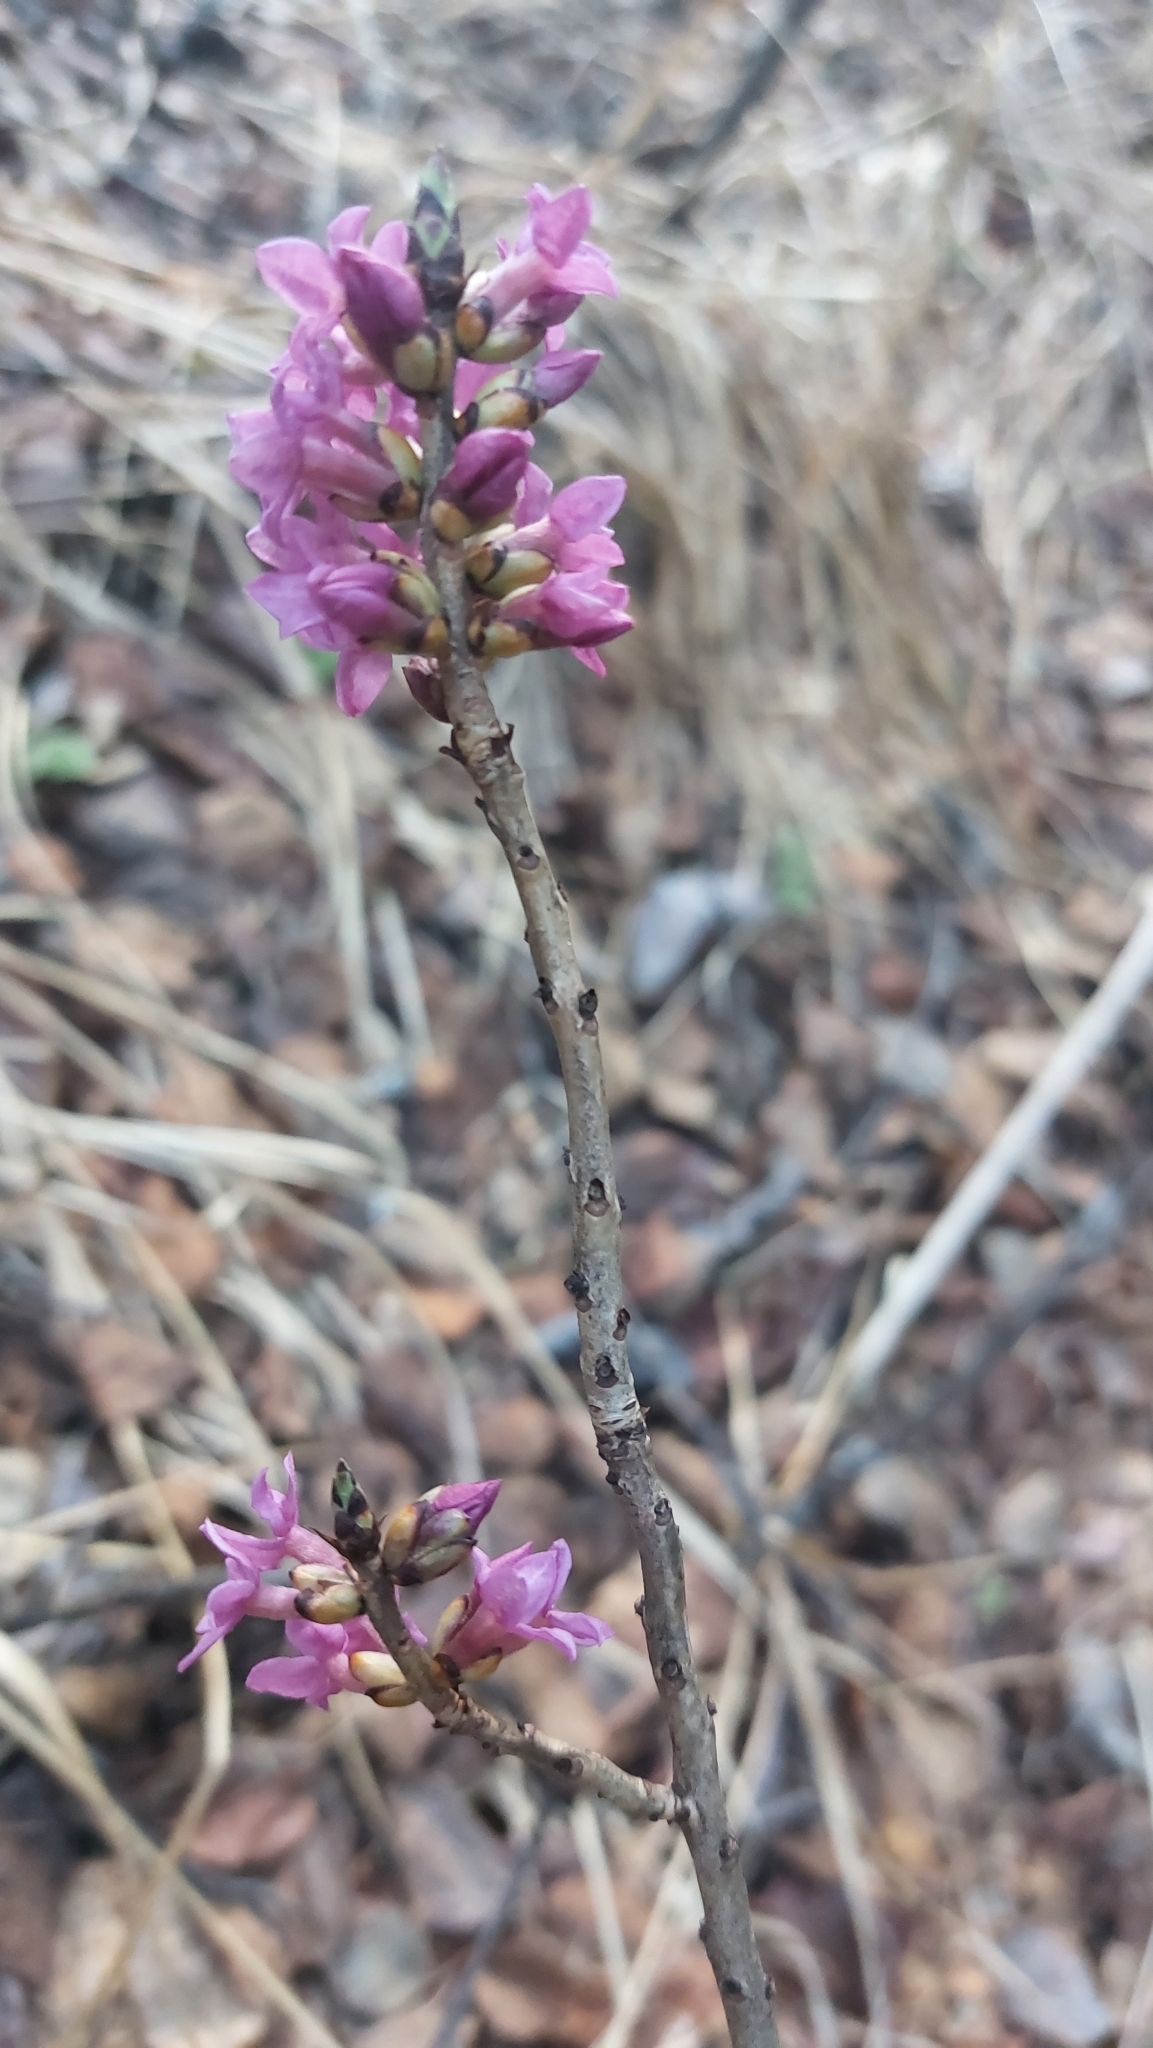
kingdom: Plantae
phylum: Tracheophyta
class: Magnoliopsida
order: Malvales
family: Thymelaeaceae
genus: Daphne
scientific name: Daphne mezereum
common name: Mezereon
